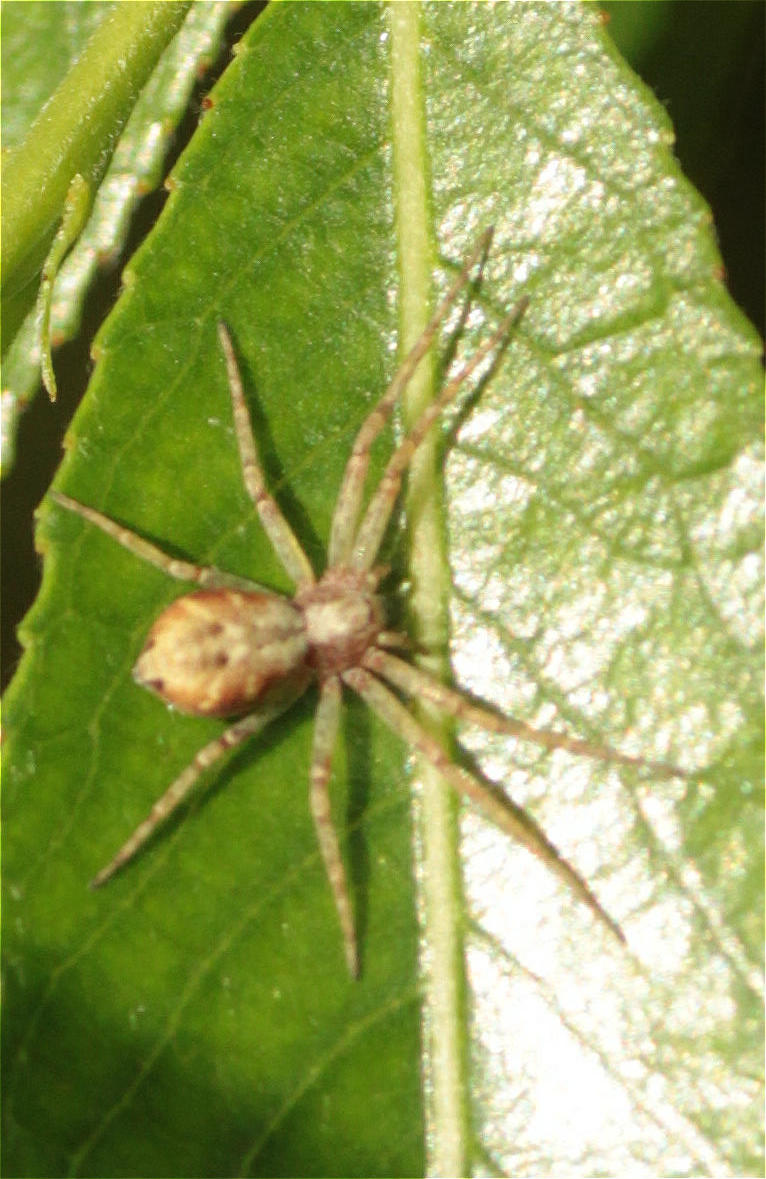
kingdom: Animalia
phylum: Arthropoda
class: Arachnida
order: Araneae
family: Philodromidae
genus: Philodromus
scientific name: Philodromus
